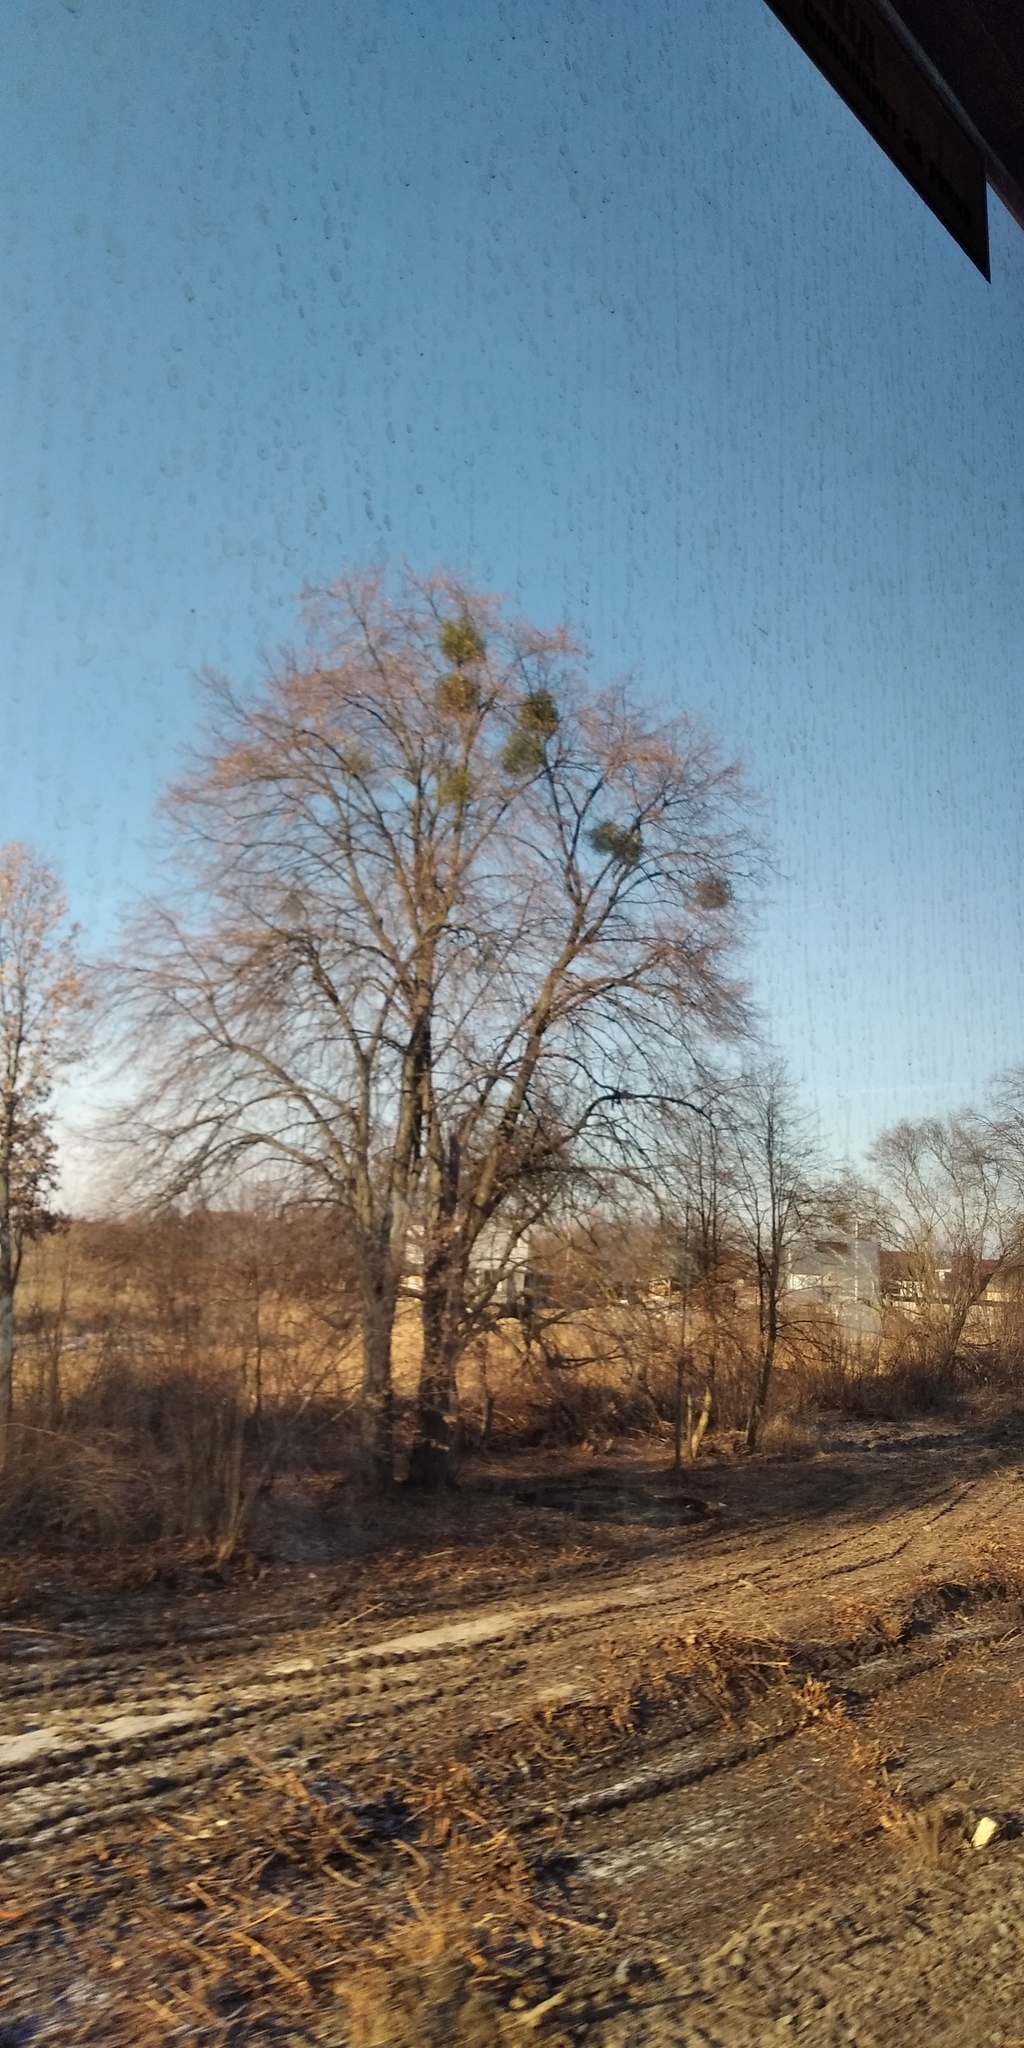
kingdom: Plantae
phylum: Tracheophyta
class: Magnoliopsida
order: Santalales
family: Viscaceae
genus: Viscum
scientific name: Viscum album
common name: Mistletoe
